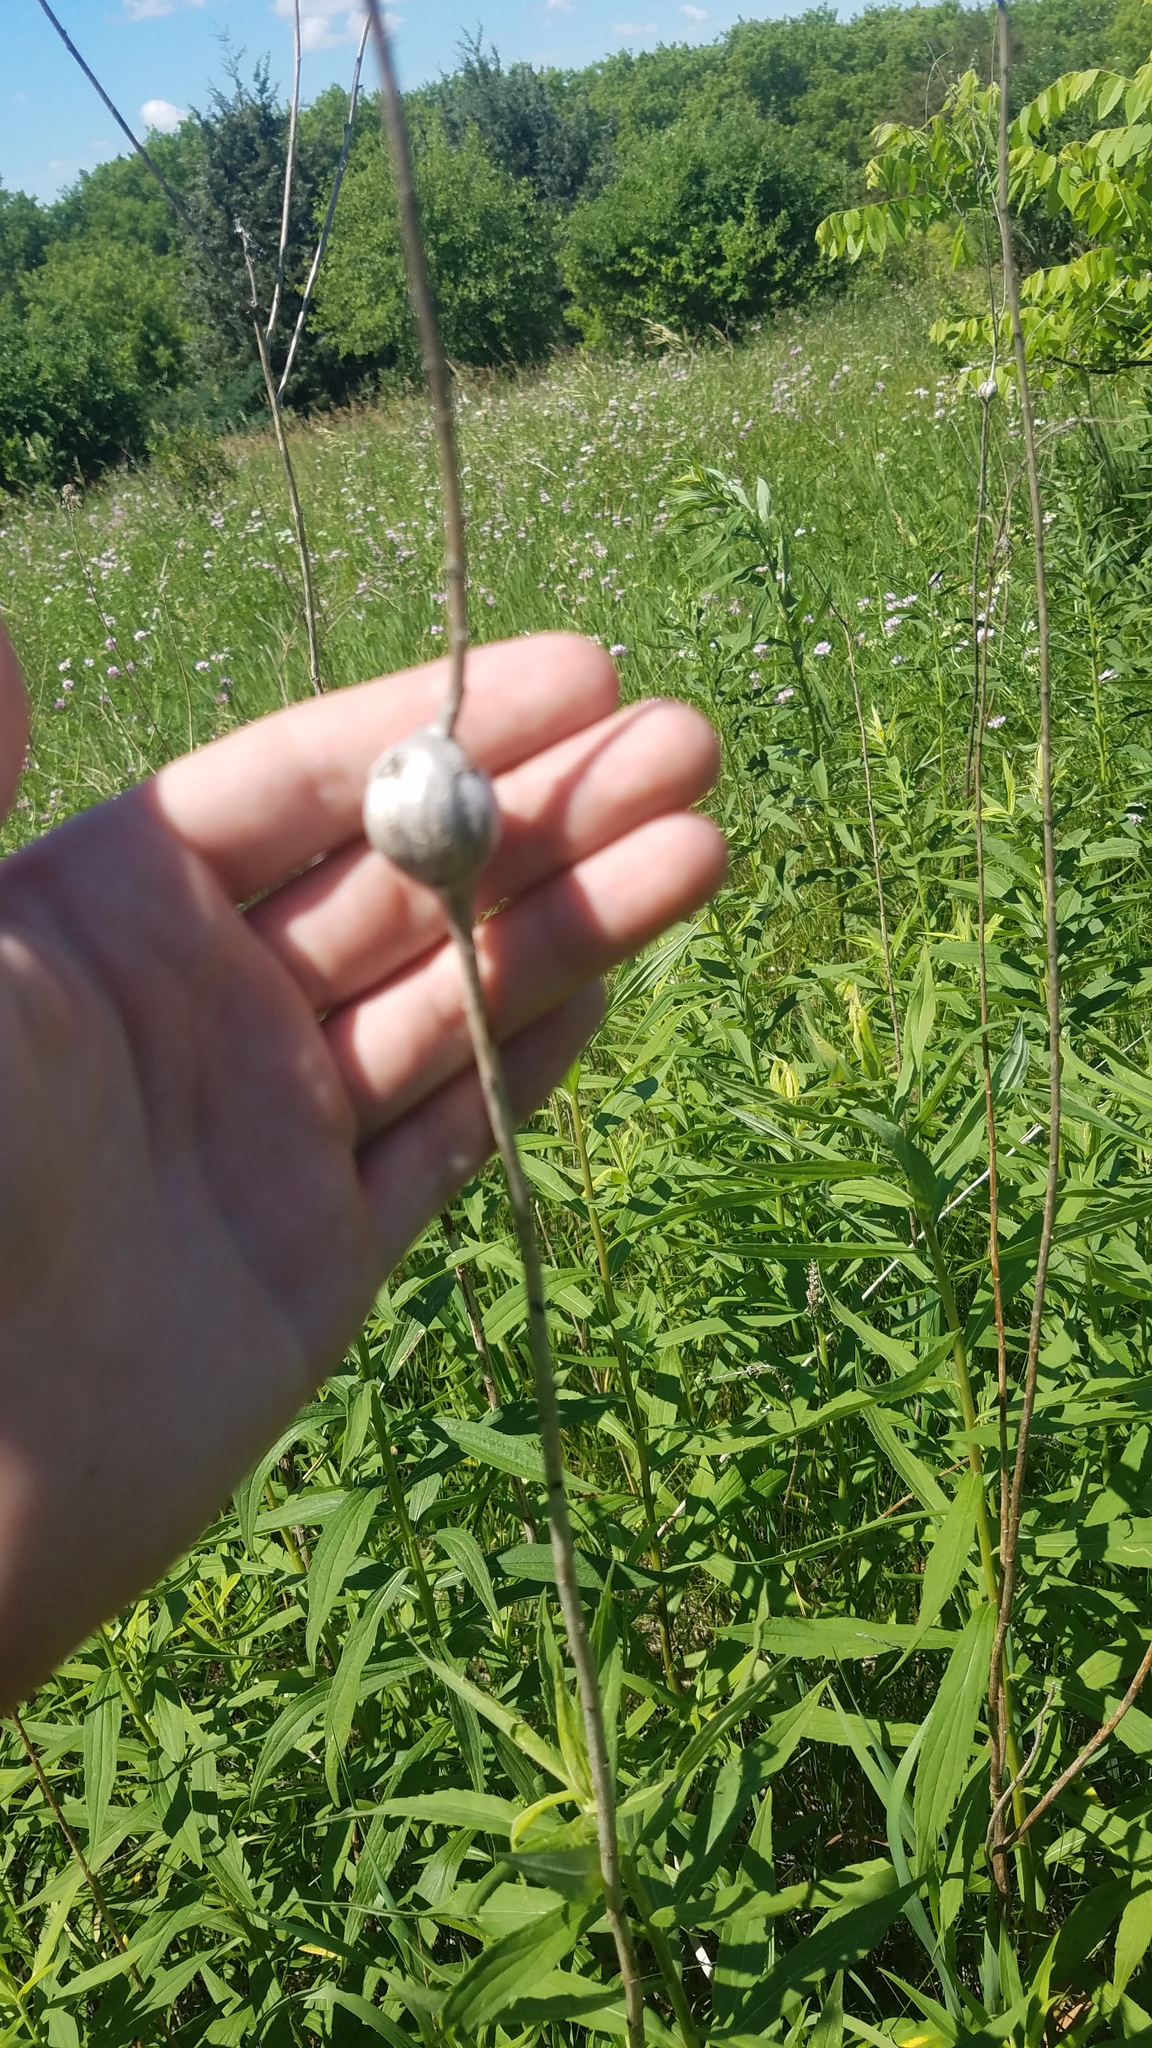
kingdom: Animalia
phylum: Arthropoda
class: Insecta
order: Diptera
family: Tephritidae
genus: Eurosta
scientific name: Eurosta solidaginis
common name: Goldenrod gall fly
